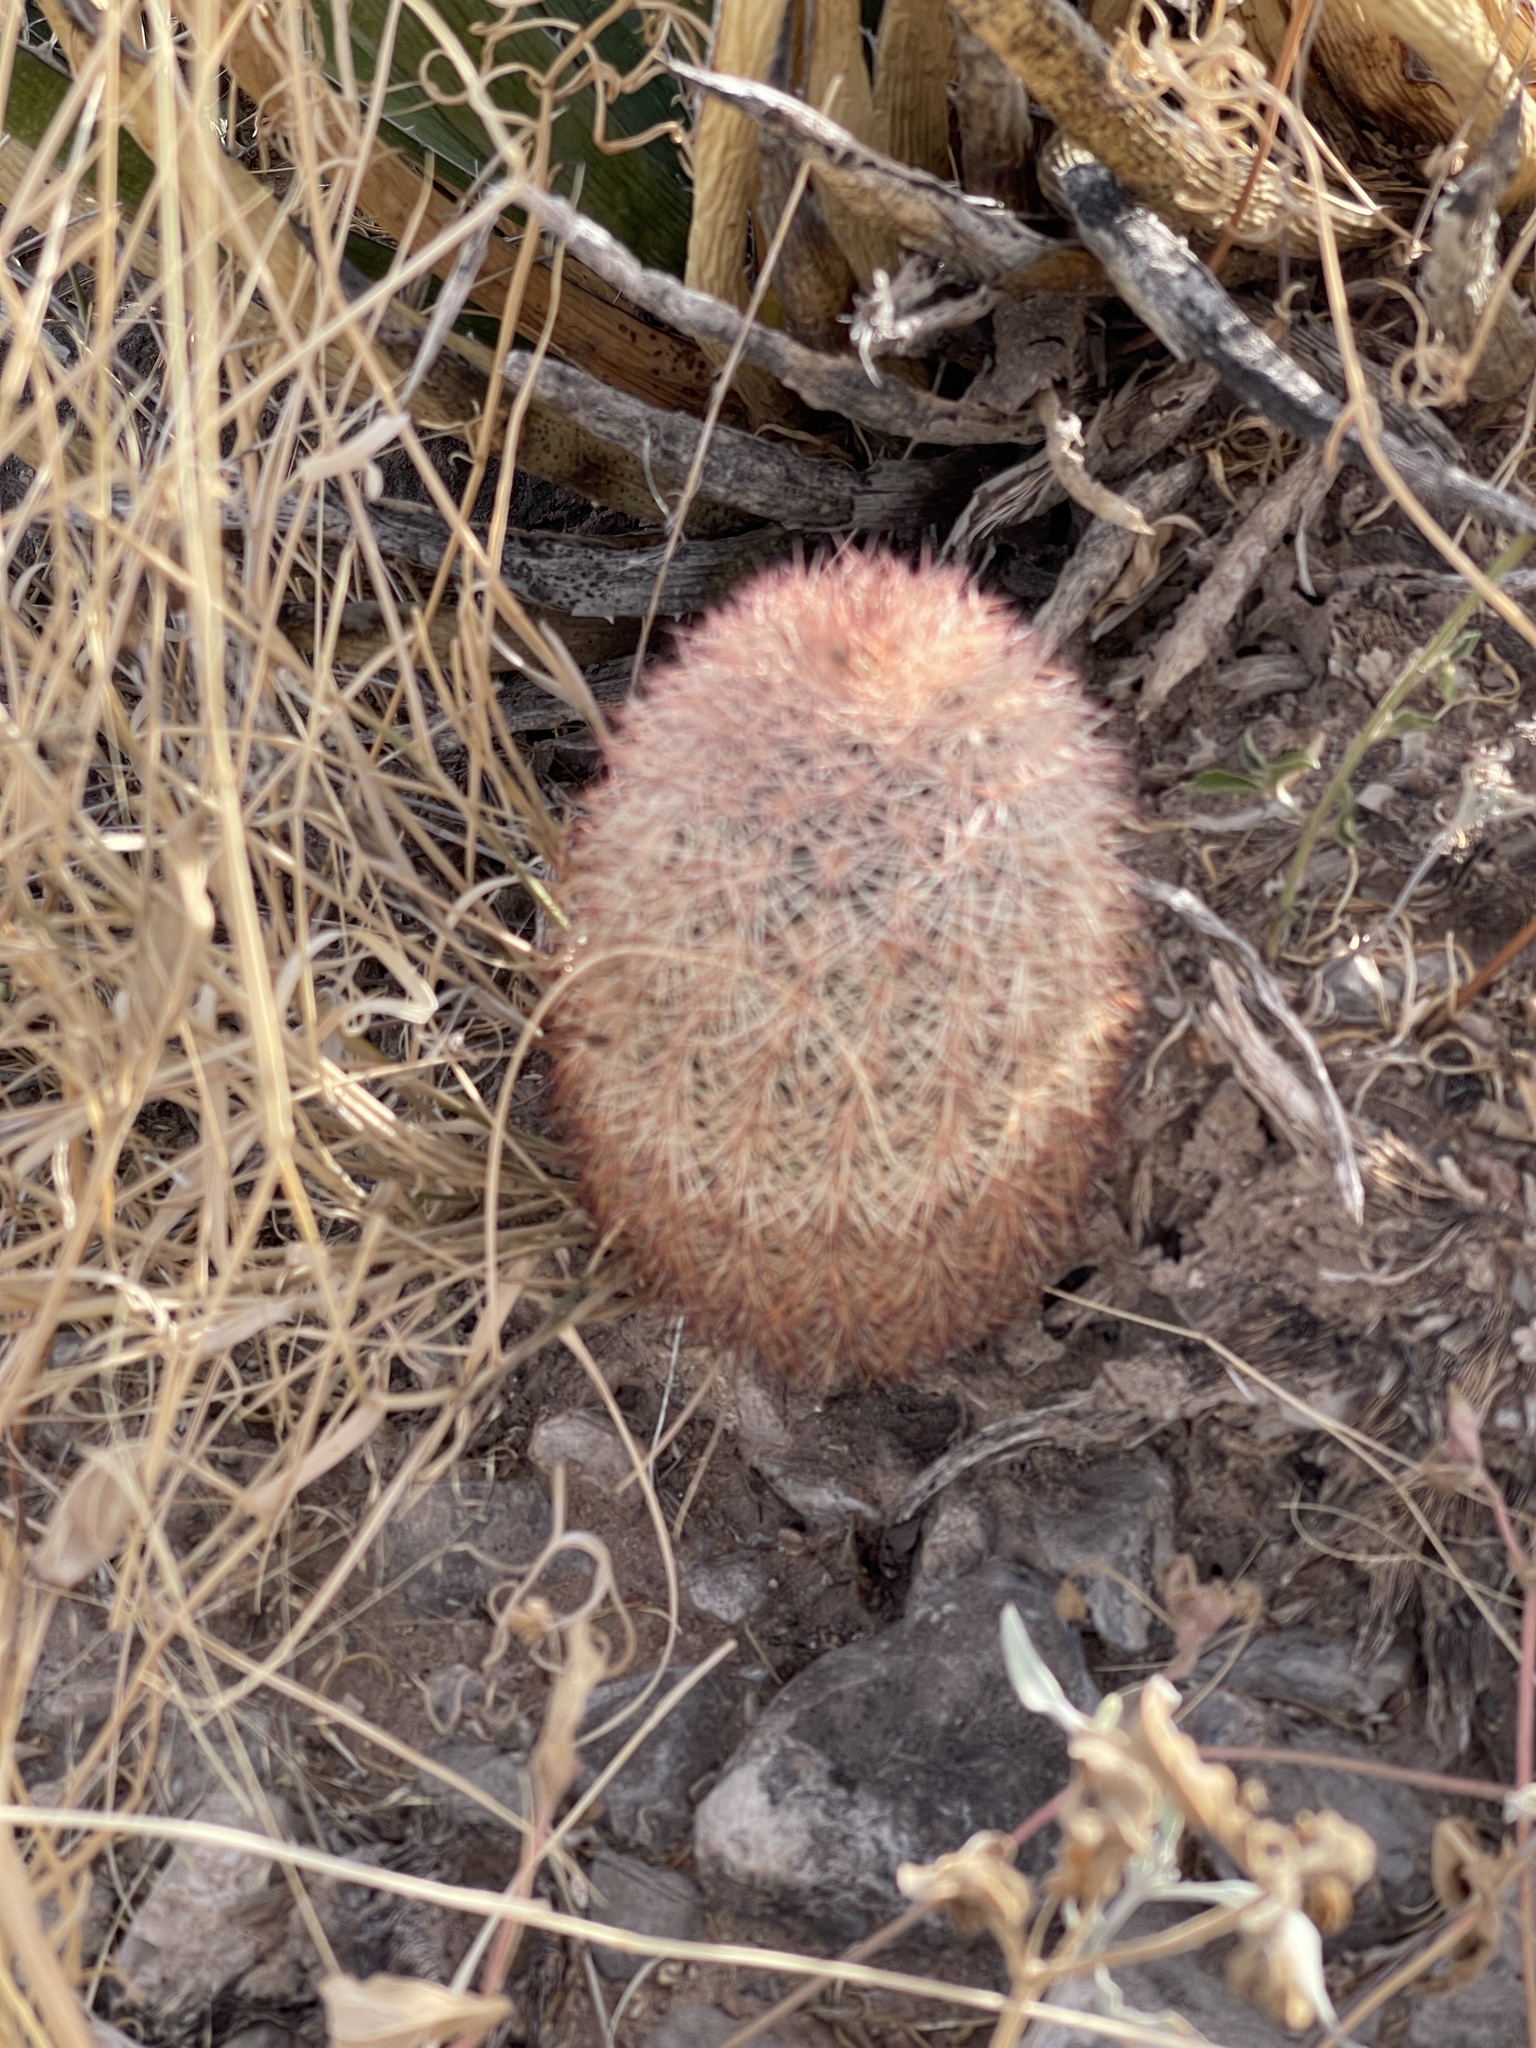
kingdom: Plantae
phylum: Tracheophyta
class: Magnoliopsida
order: Caryophyllales
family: Cactaceae
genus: Echinocereus
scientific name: Echinocereus dasyacanthus
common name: Spiny hedgehog cactus
